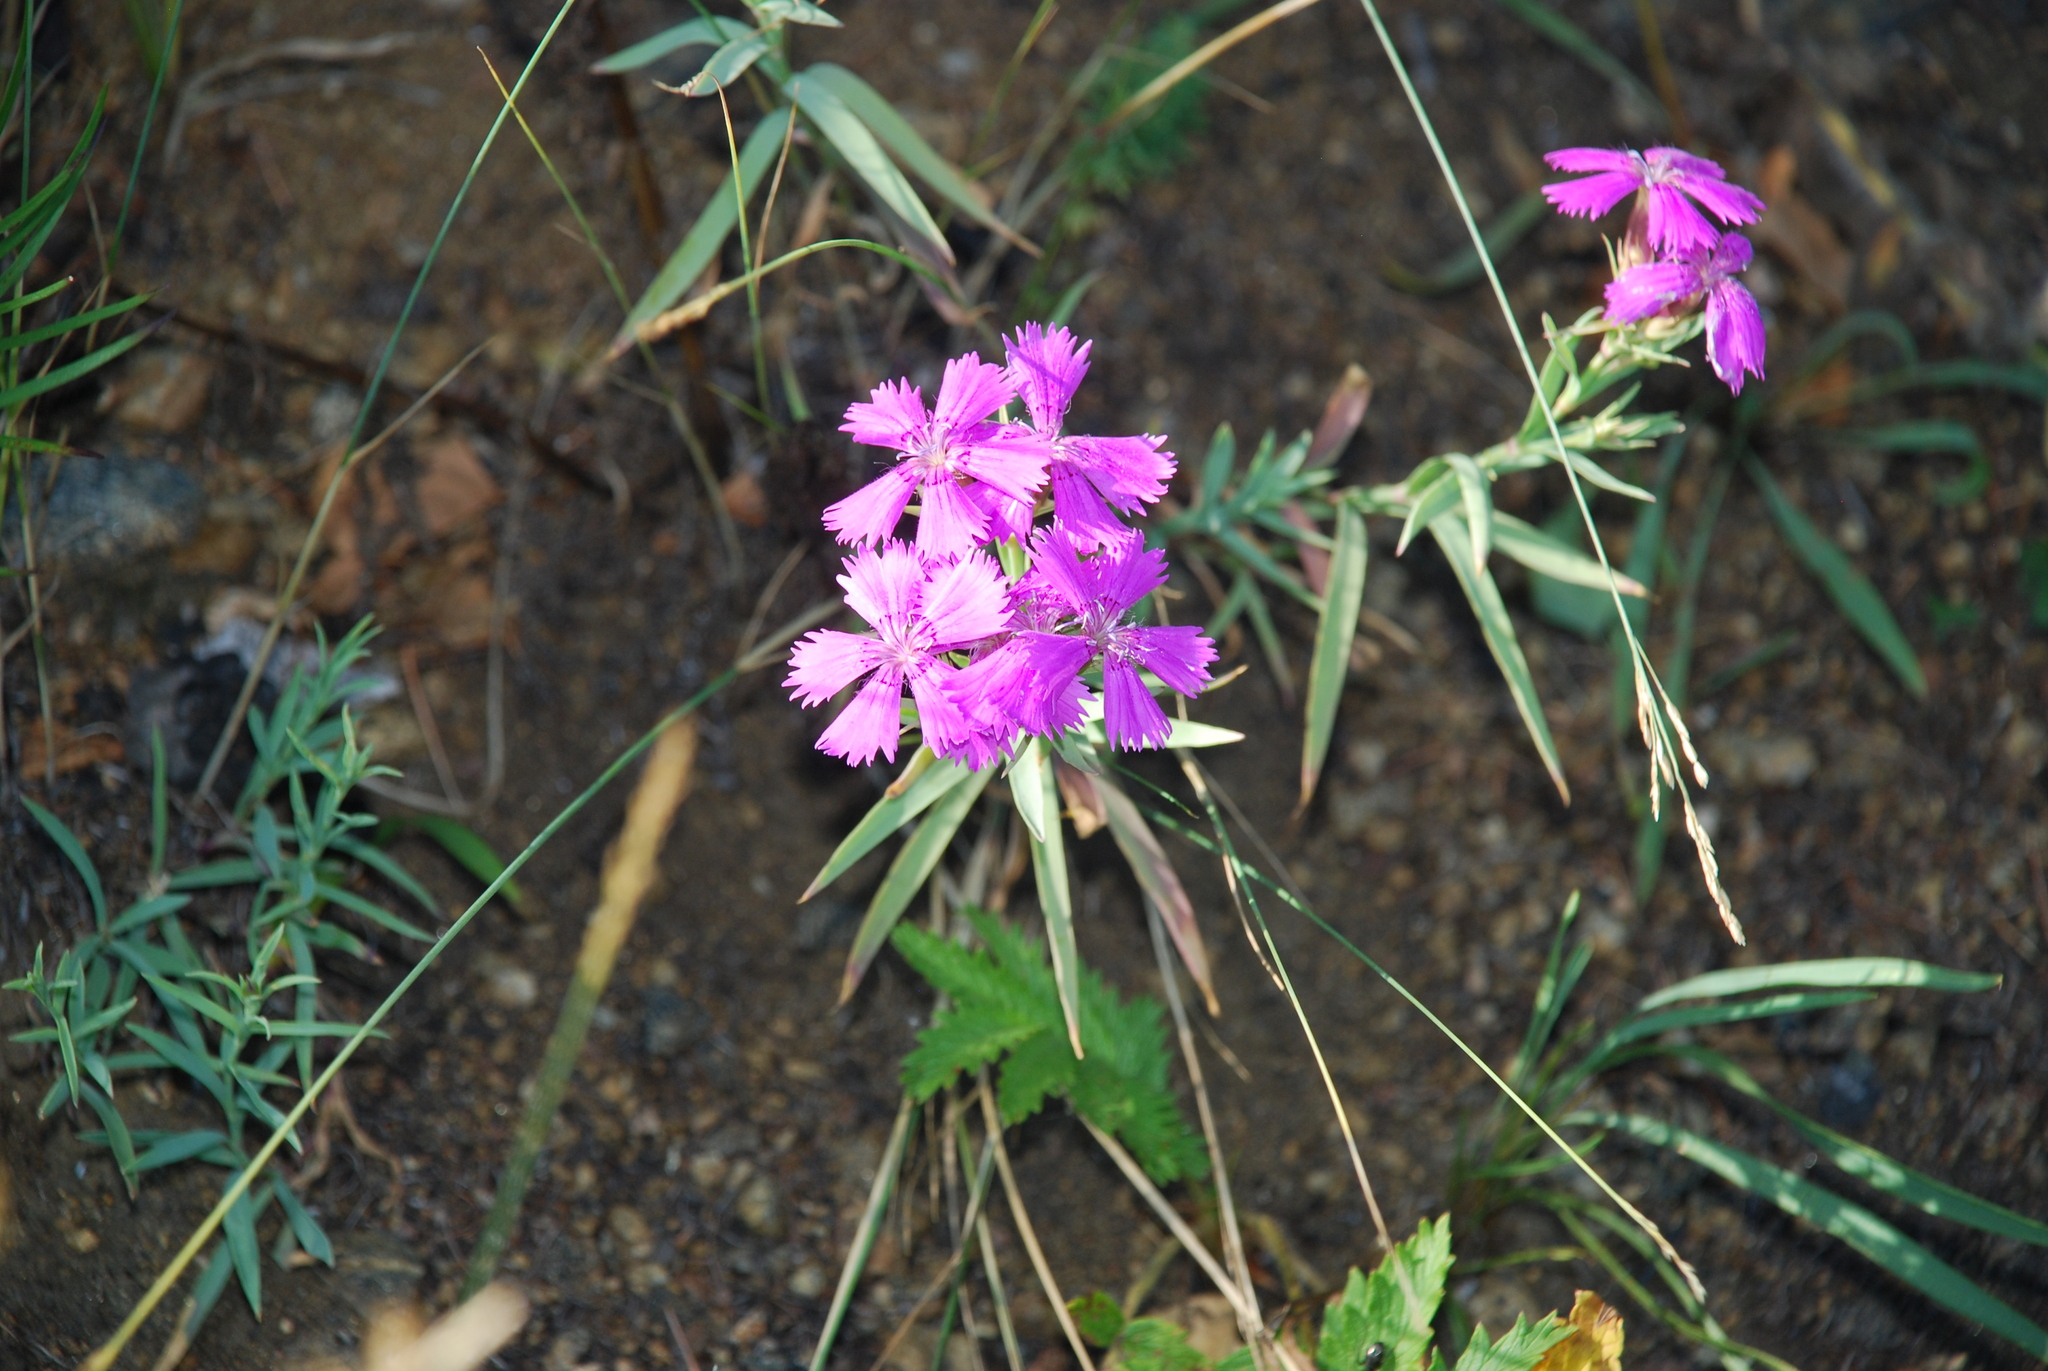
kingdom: Plantae
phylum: Tracheophyta
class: Magnoliopsida
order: Caryophyllales
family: Caryophyllaceae
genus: Dianthus
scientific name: Dianthus chinensis
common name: Rainbow pink
